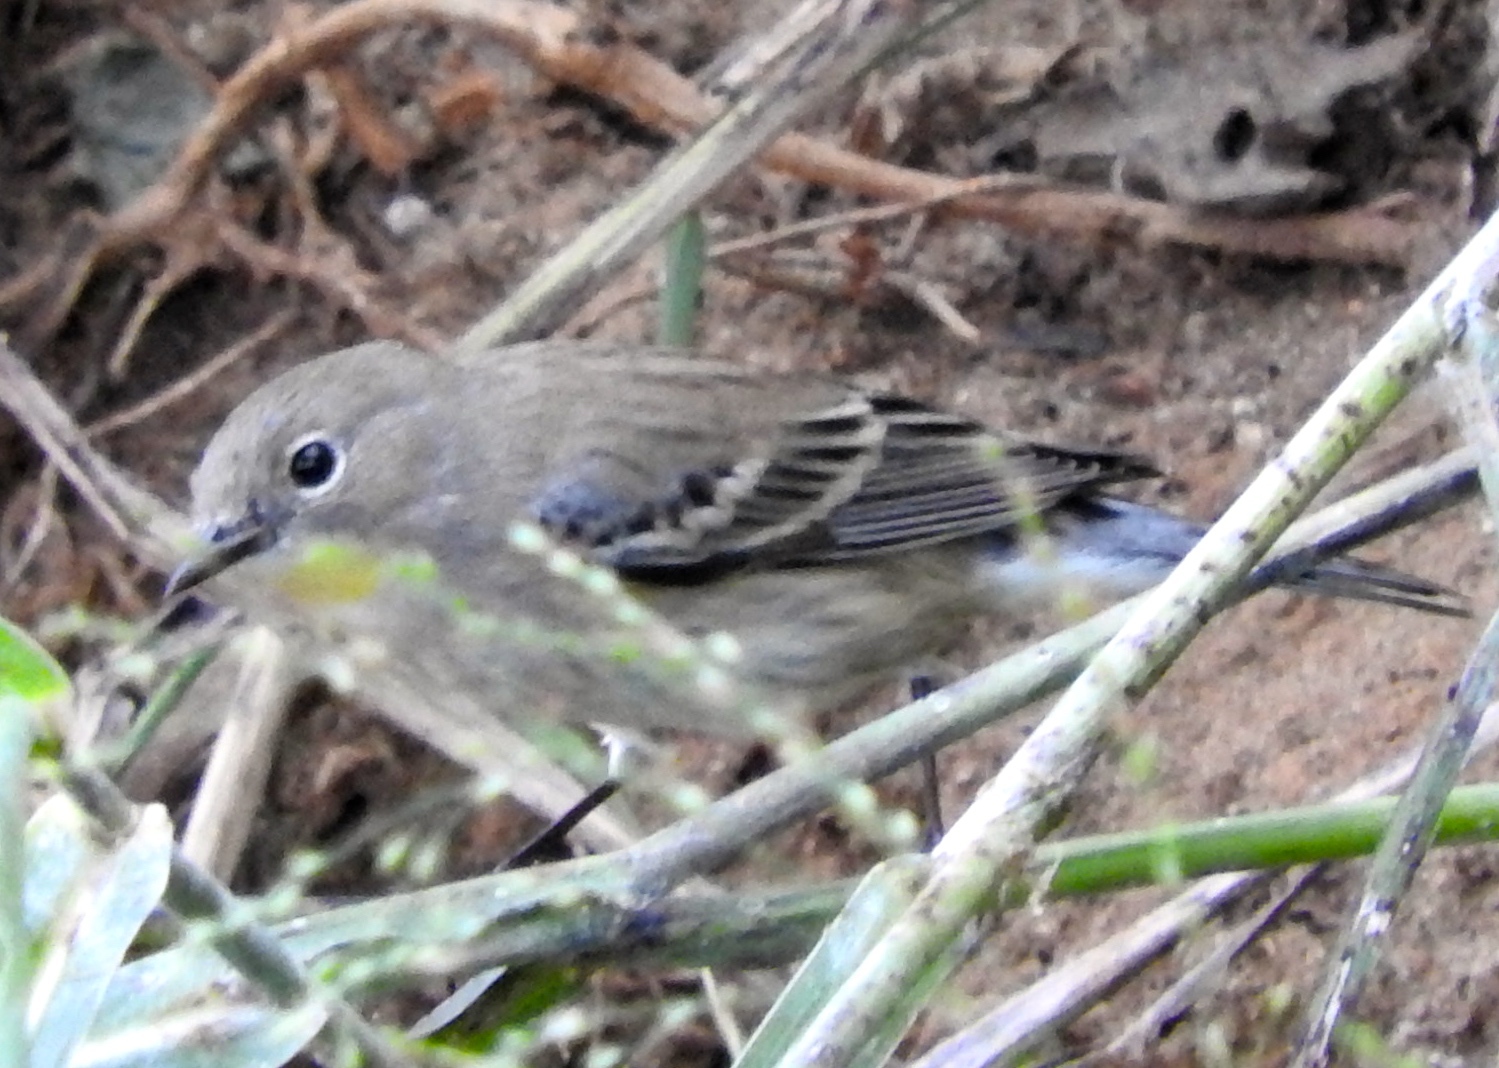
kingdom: Animalia
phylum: Chordata
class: Aves
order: Passeriformes
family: Parulidae
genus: Setophaga
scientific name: Setophaga coronata
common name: Myrtle warbler
